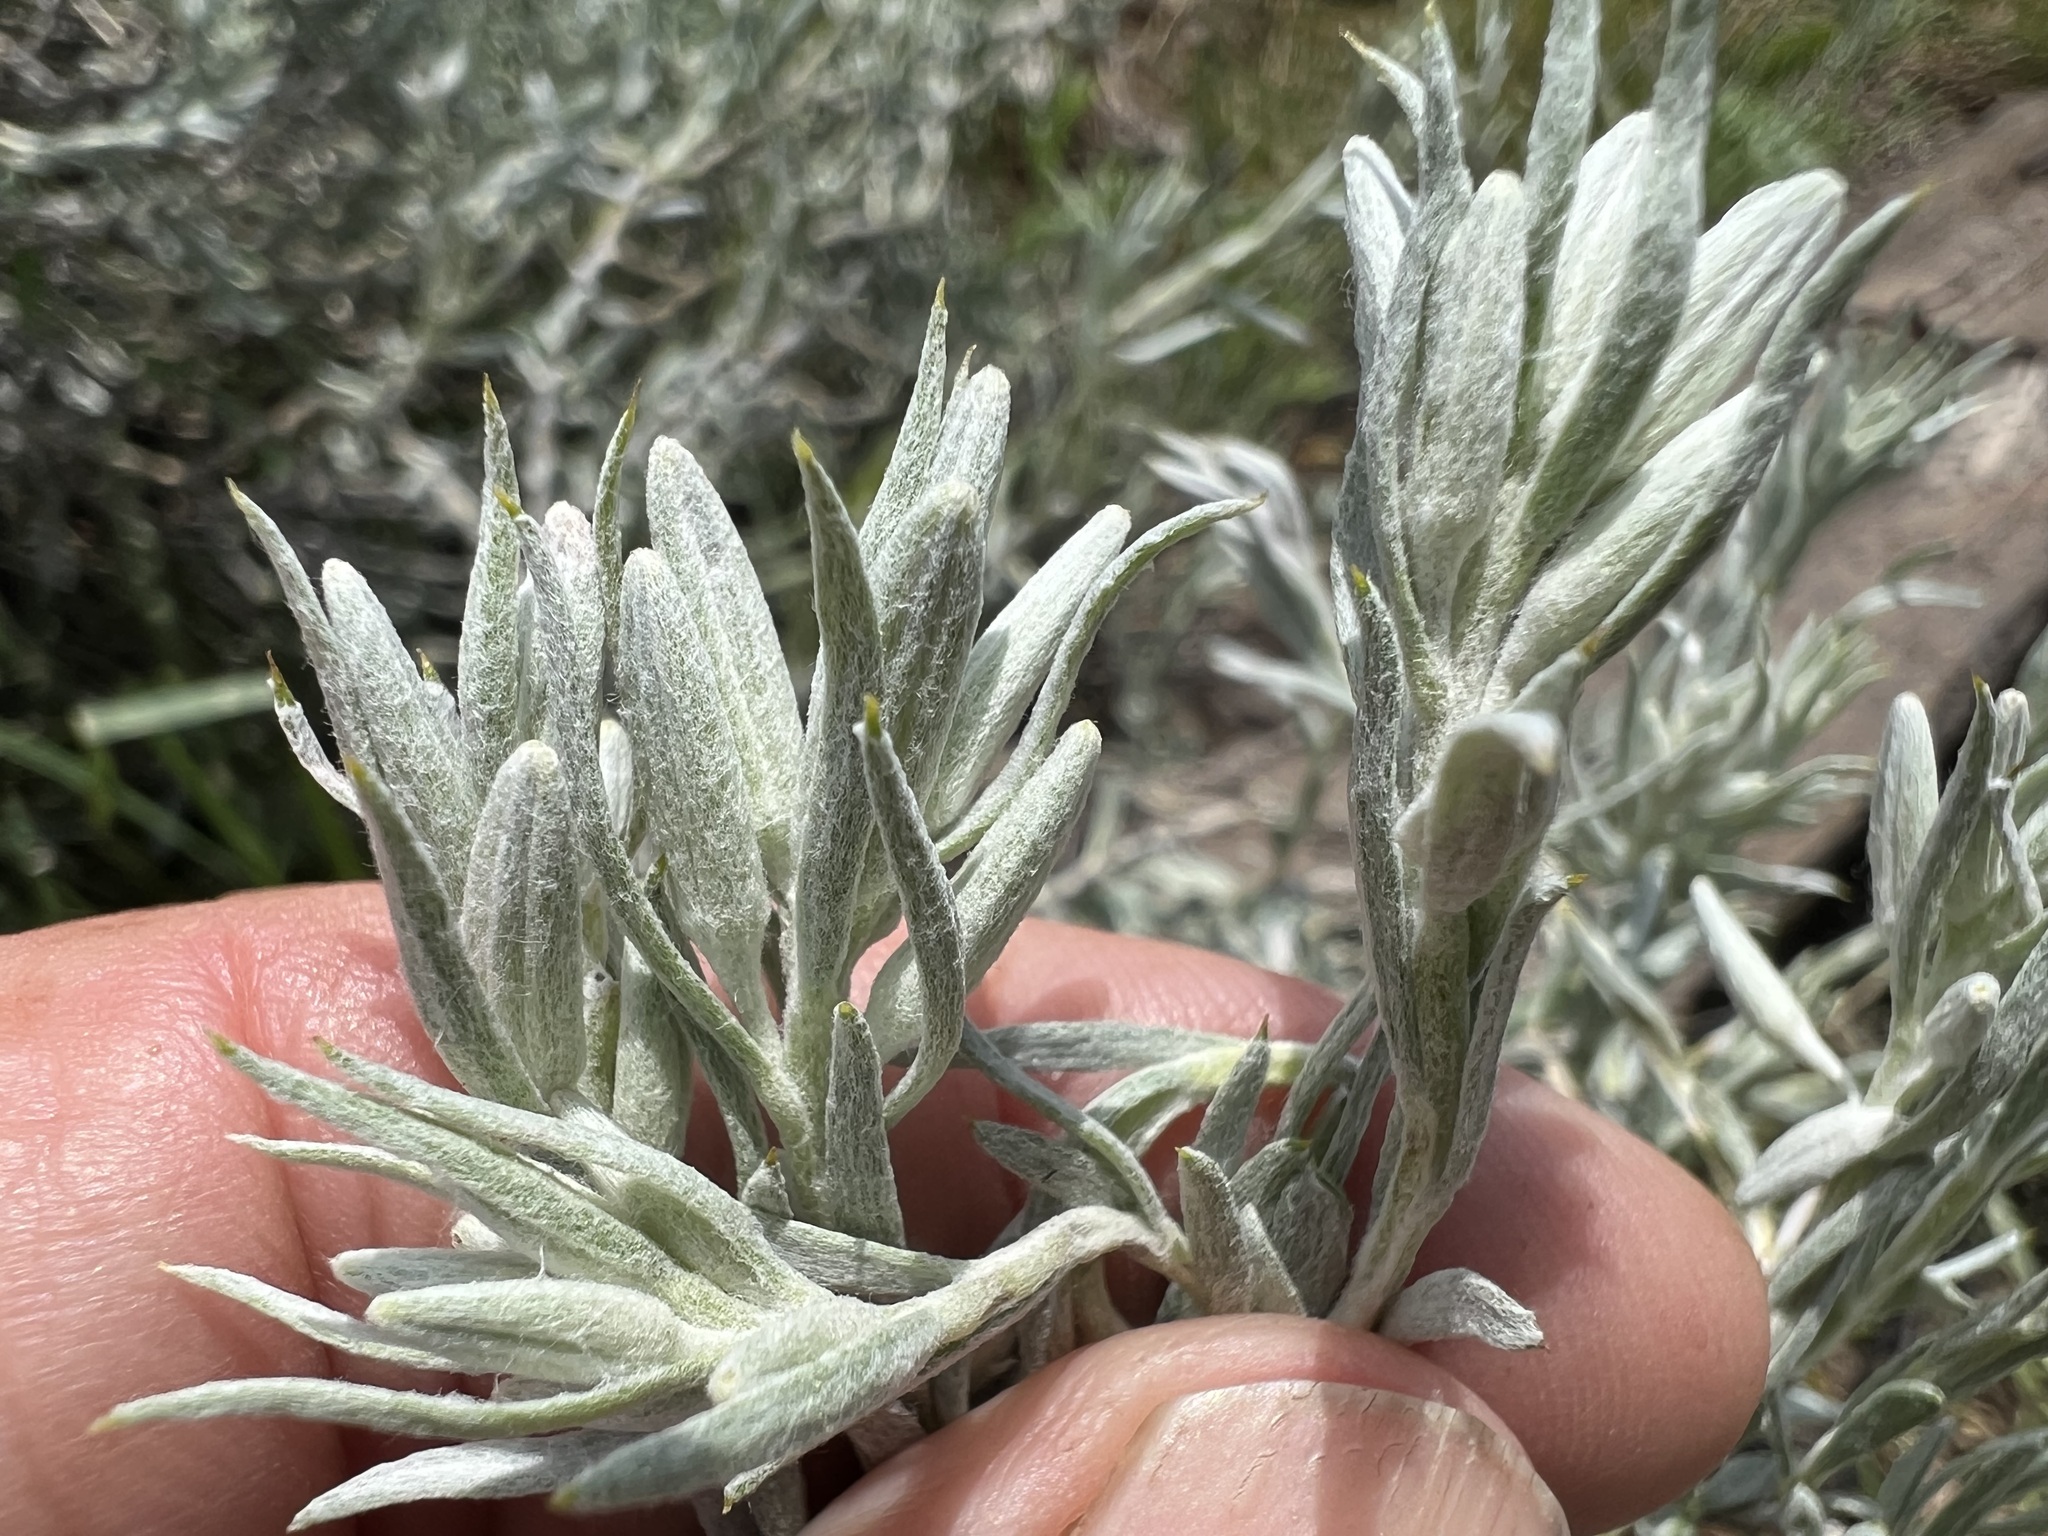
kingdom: Plantae
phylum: Tracheophyta
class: Magnoliopsida
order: Asterales
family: Asteraceae
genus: Tetradymia
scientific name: Tetradymia canescens
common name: Spineless horsebrush
